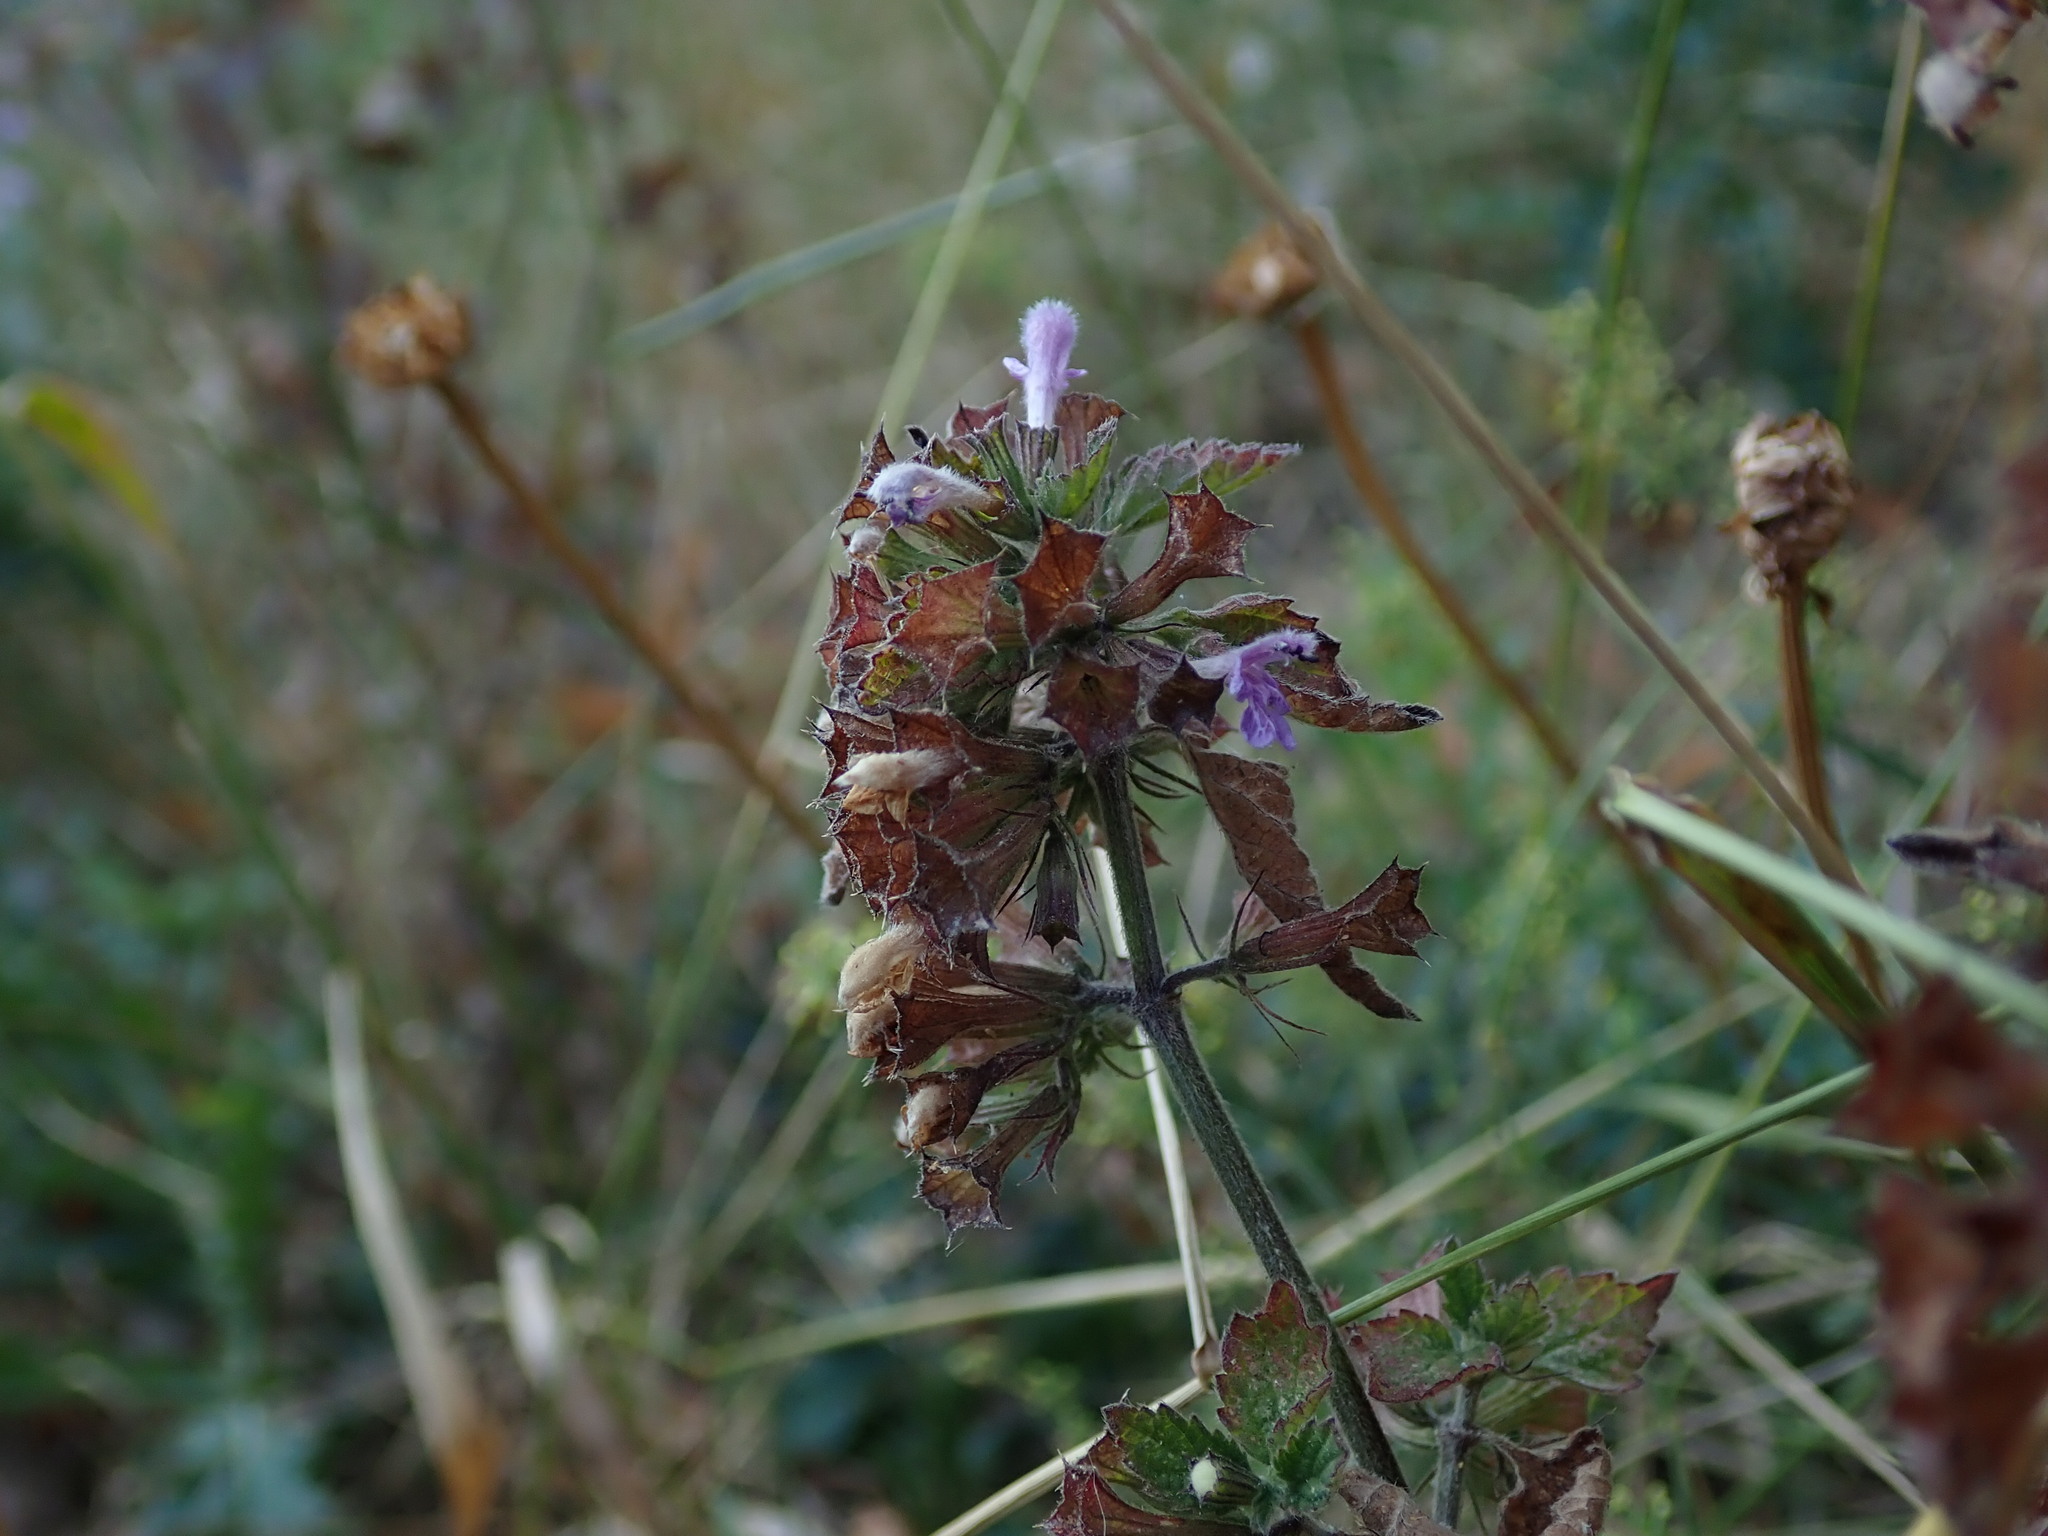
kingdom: Plantae
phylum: Tracheophyta
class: Magnoliopsida
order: Lamiales
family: Lamiaceae
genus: Ballota
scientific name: Ballota nigra
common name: Black horehound
